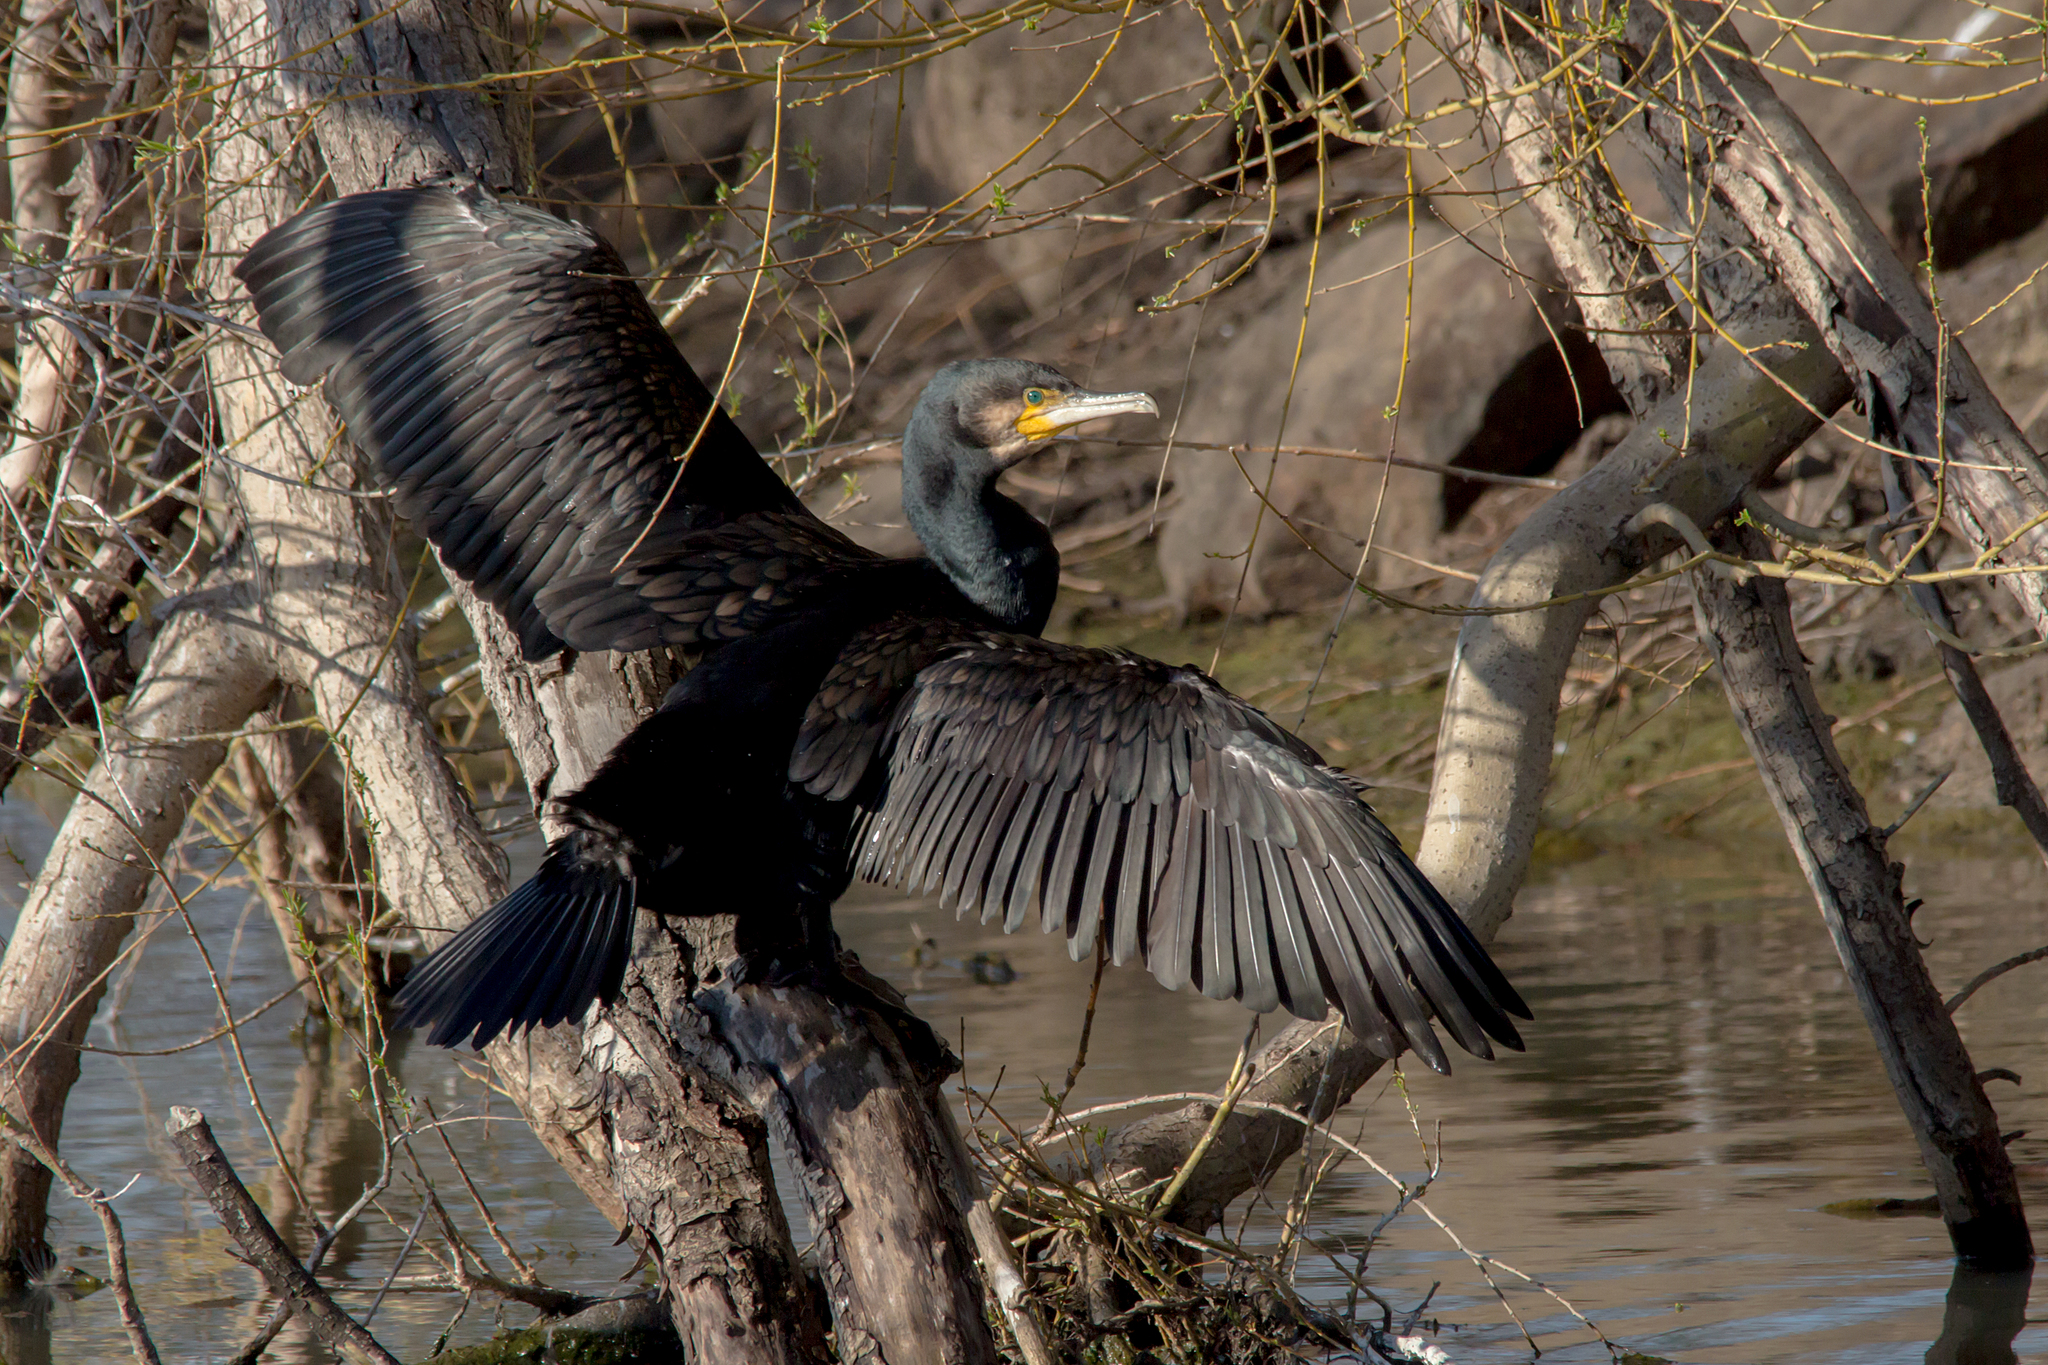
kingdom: Animalia
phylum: Chordata
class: Aves
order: Suliformes
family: Phalacrocoracidae
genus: Phalacrocorax
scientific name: Phalacrocorax carbo
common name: Great cormorant
